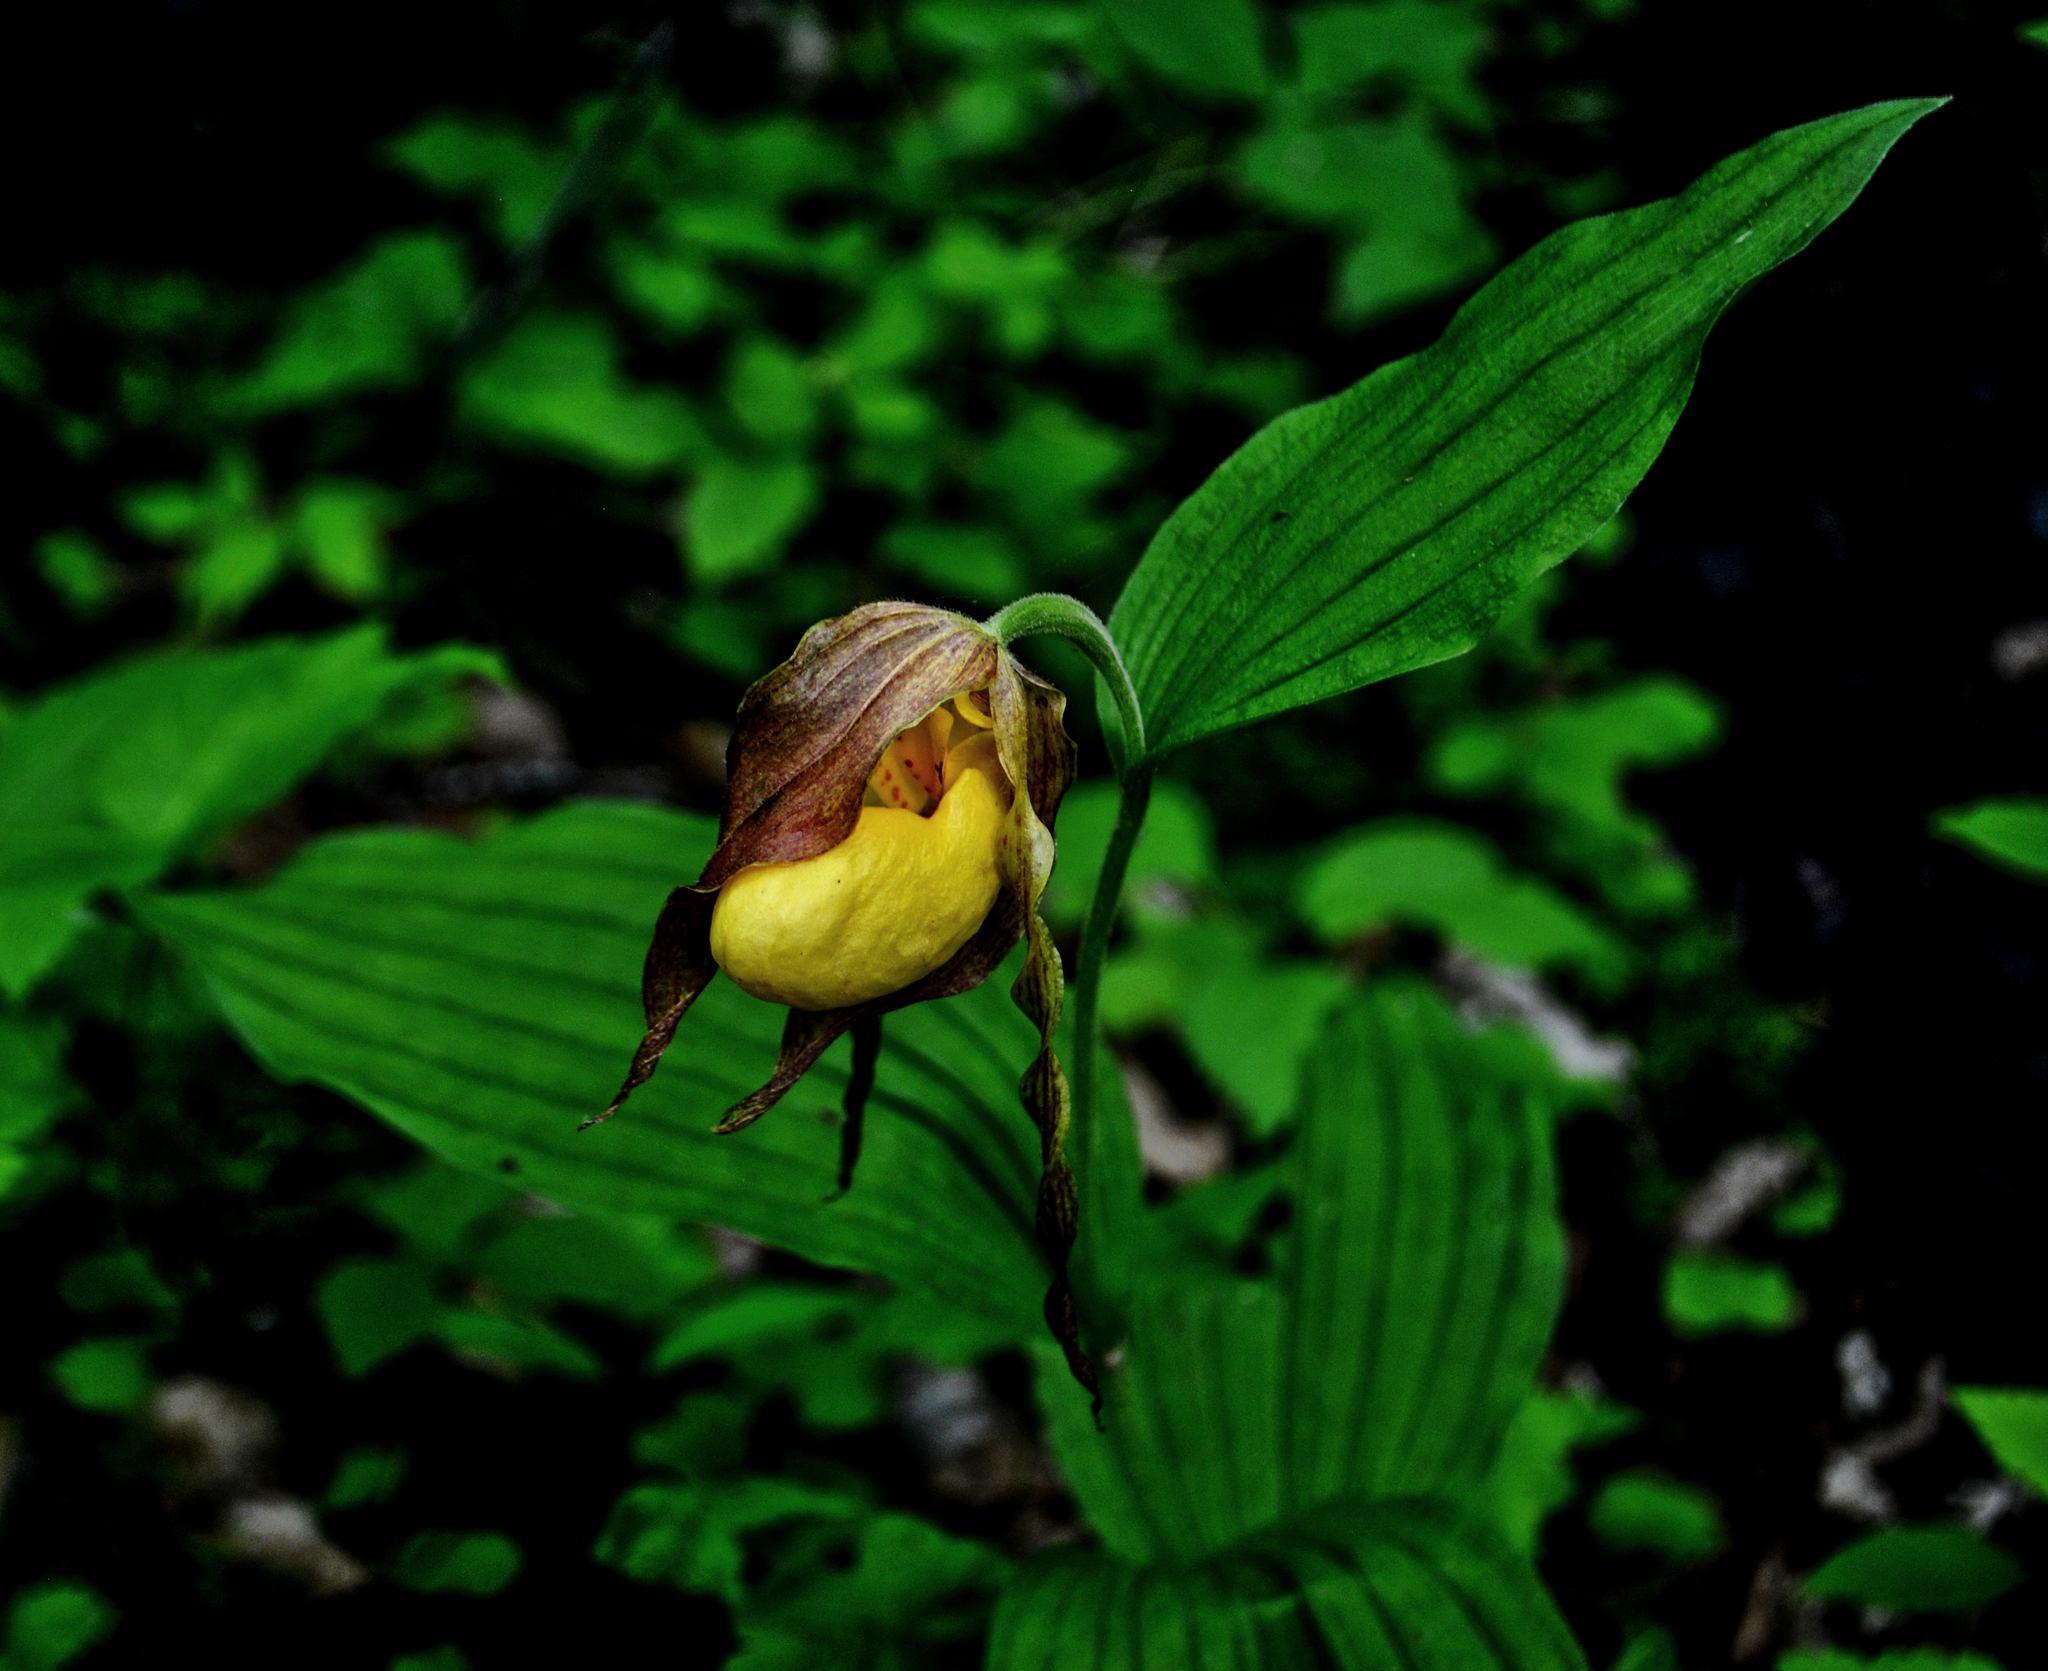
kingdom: Plantae
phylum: Tracheophyta
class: Liliopsida
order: Asparagales
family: Orchidaceae
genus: Cypripedium
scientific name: Cypripedium parviflorum
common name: American yellow lady's-slipper
